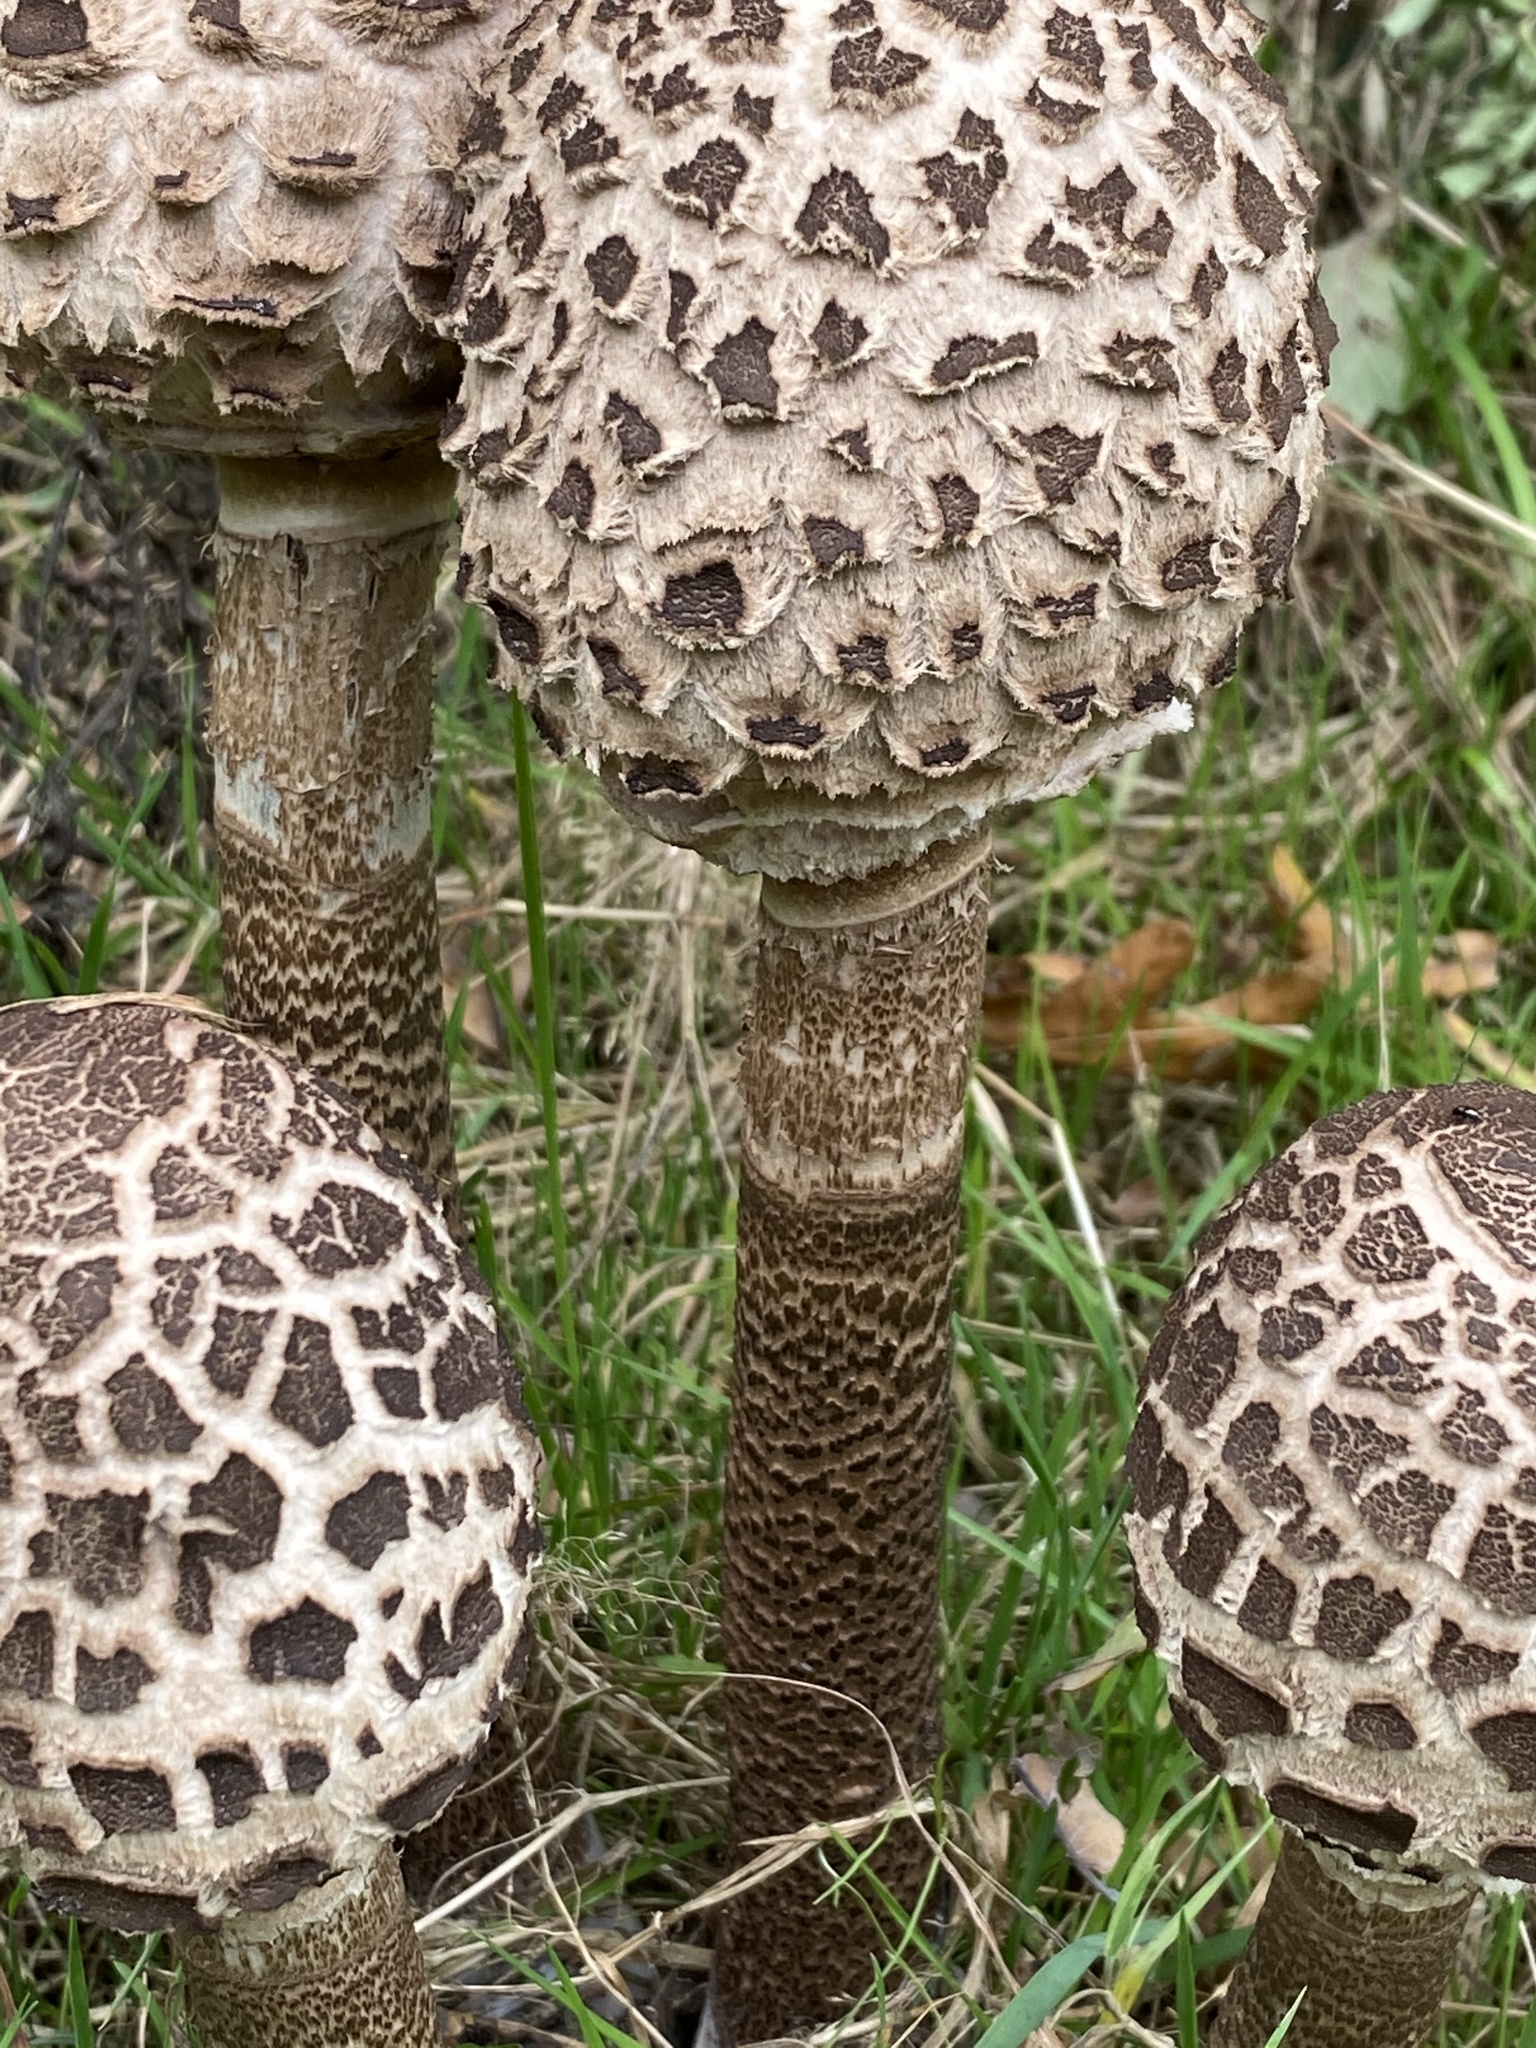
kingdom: Fungi
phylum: Basidiomycota
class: Agaricomycetes
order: Agaricales
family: Agaricaceae
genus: Macrolepiota
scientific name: Macrolepiota procera
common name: Parasol
